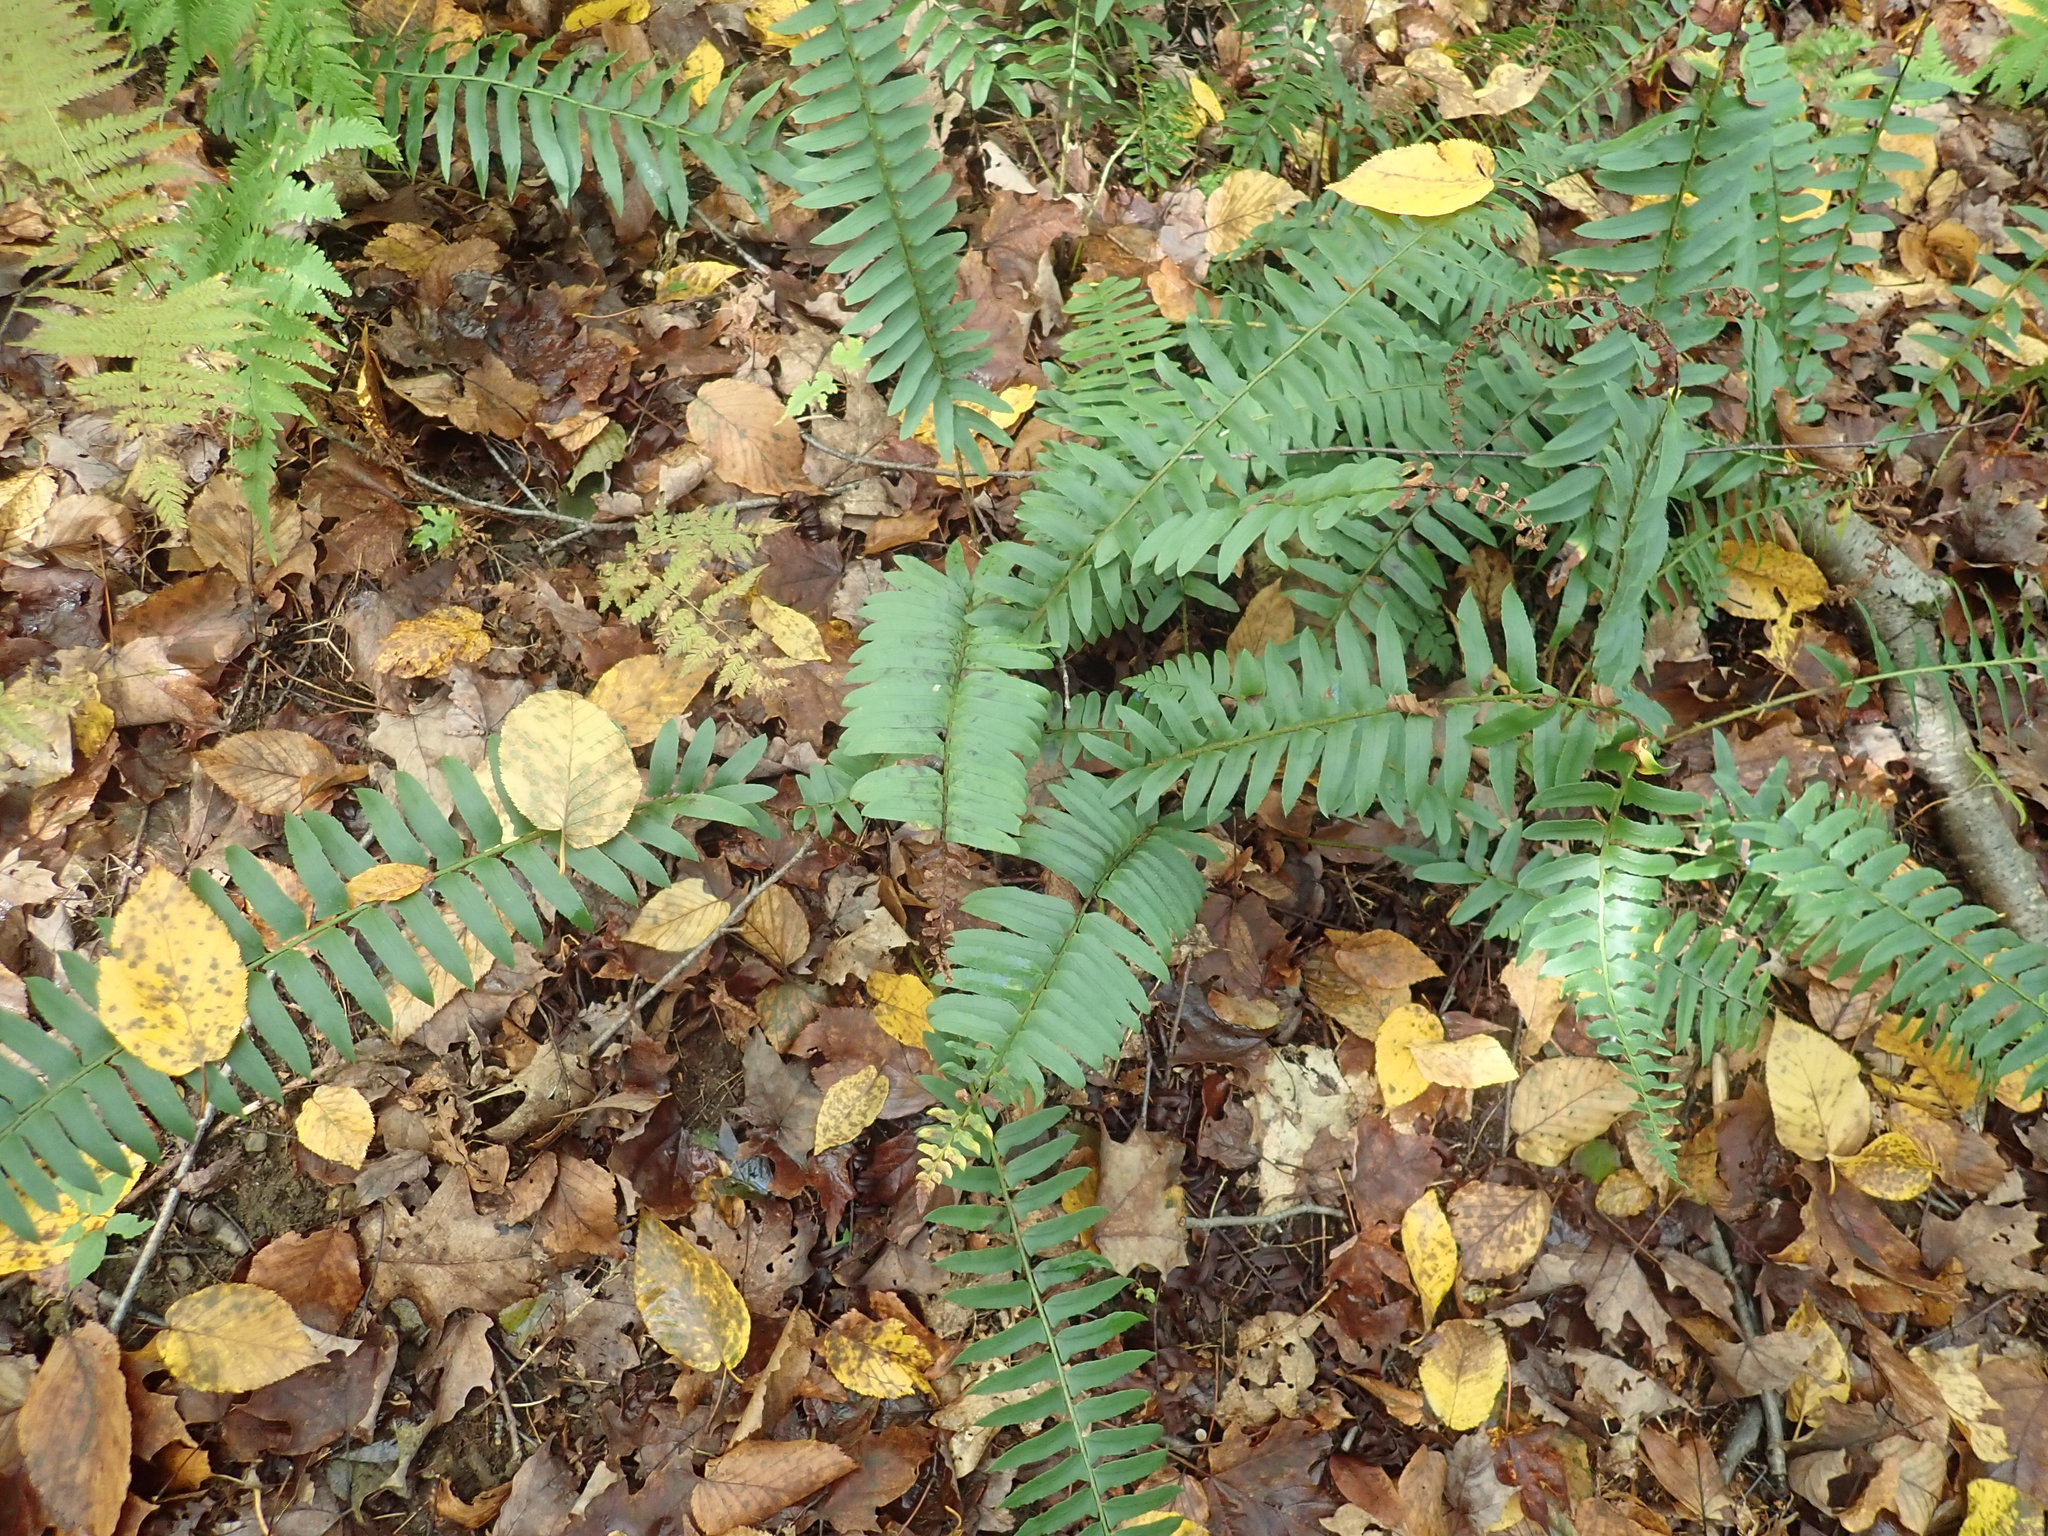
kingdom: Plantae
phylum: Tracheophyta
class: Polypodiopsida
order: Polypodiales
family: Dryopteridaceae
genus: Polystichum
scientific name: Polystichum acrostichoides
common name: Christmas fern
